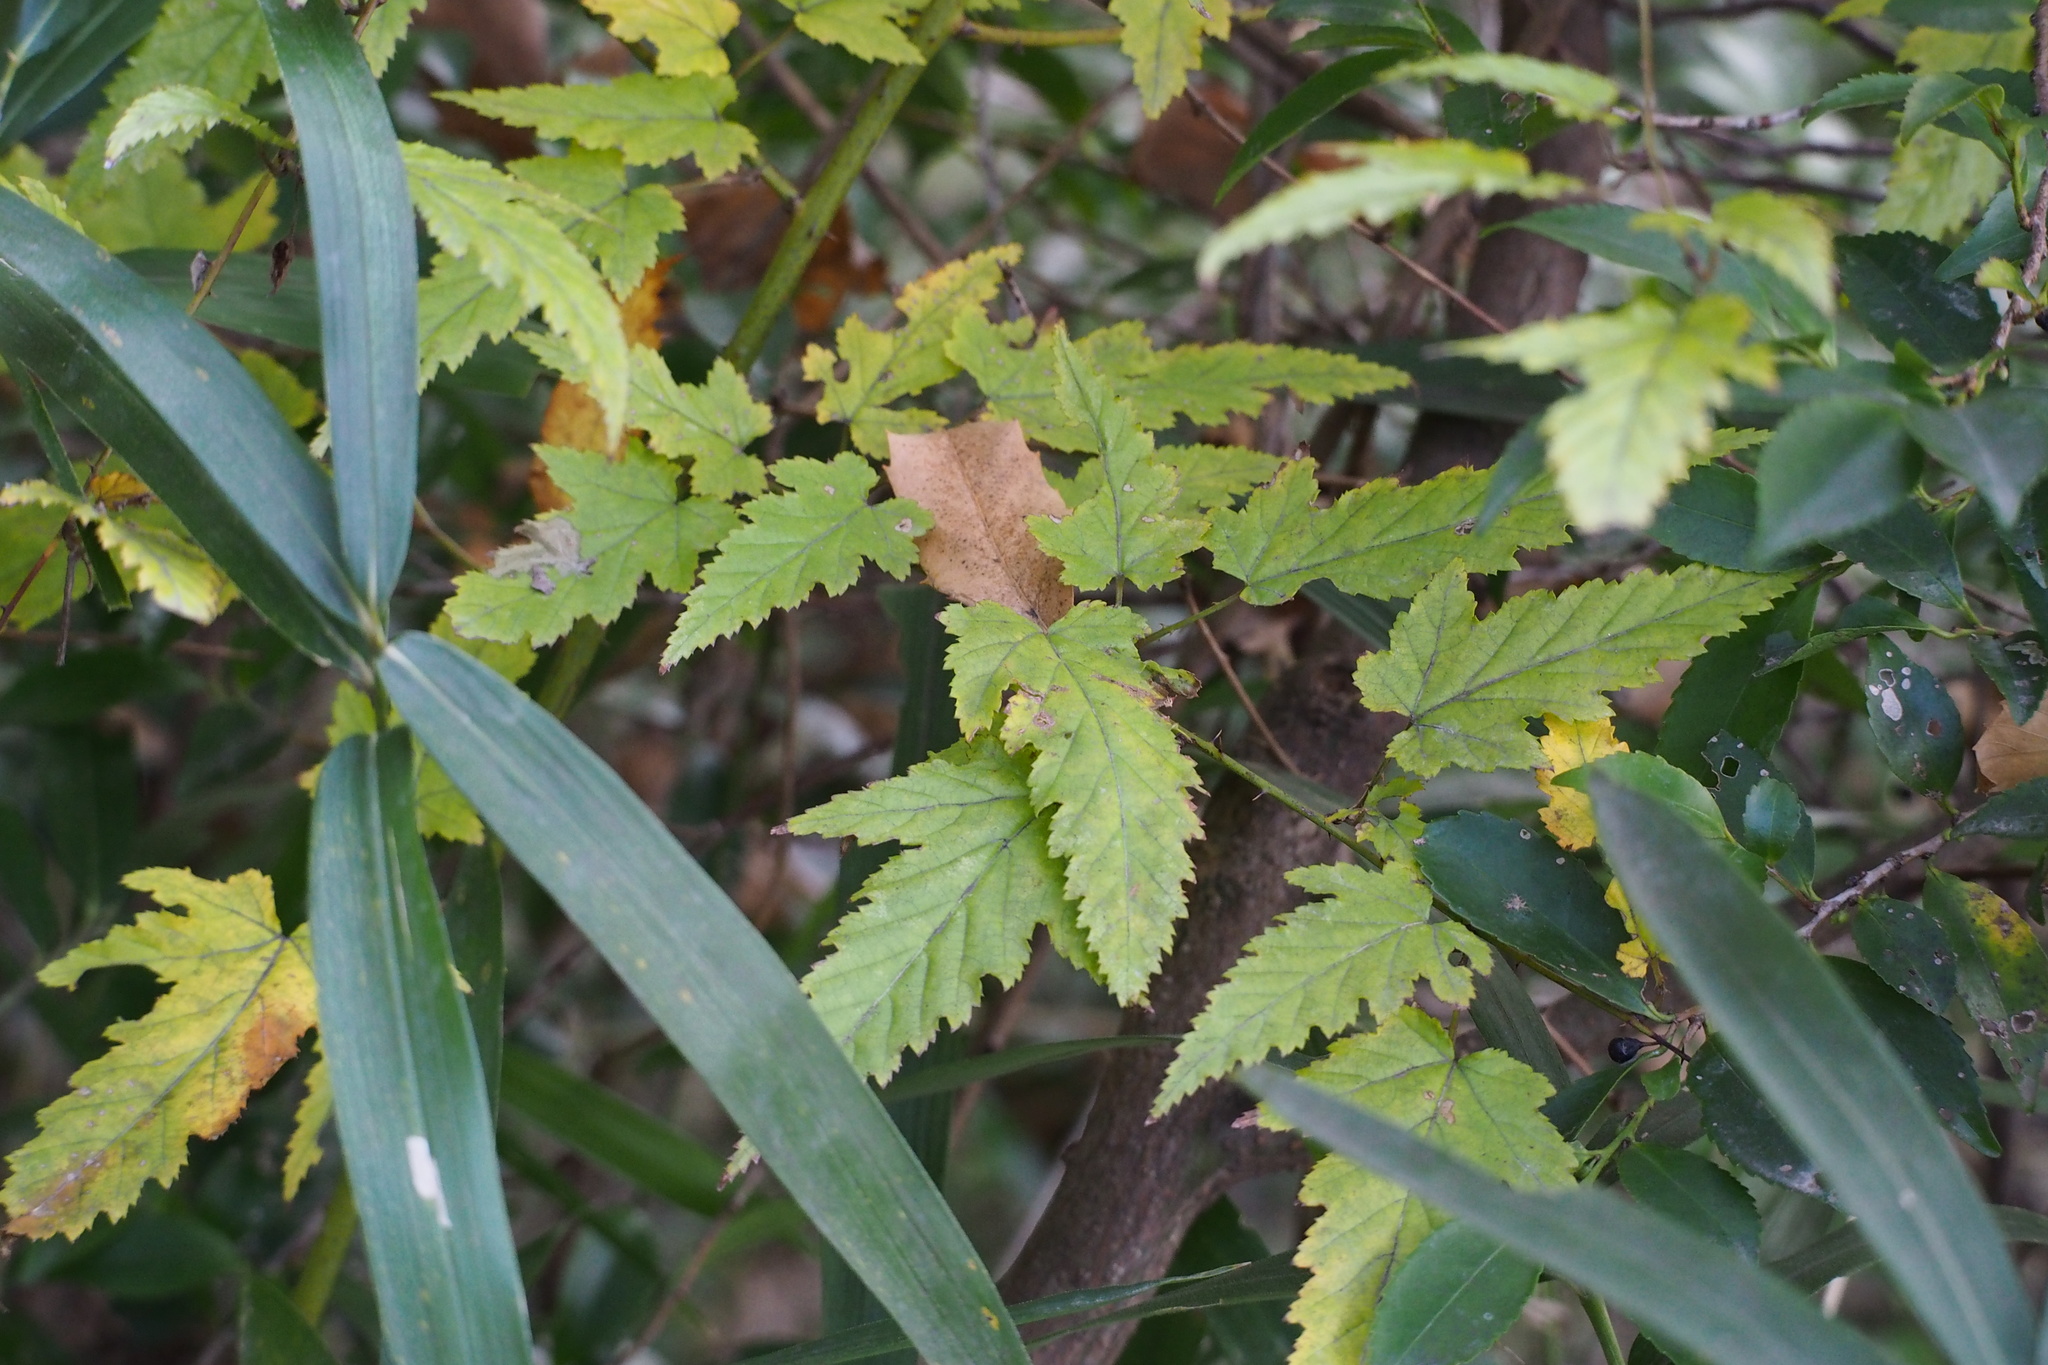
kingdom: Plantae
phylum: Tracheophyta
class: Magnoliopsida
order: Rosales
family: Rosaceae
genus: Rubus
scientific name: Rubus palmatus
